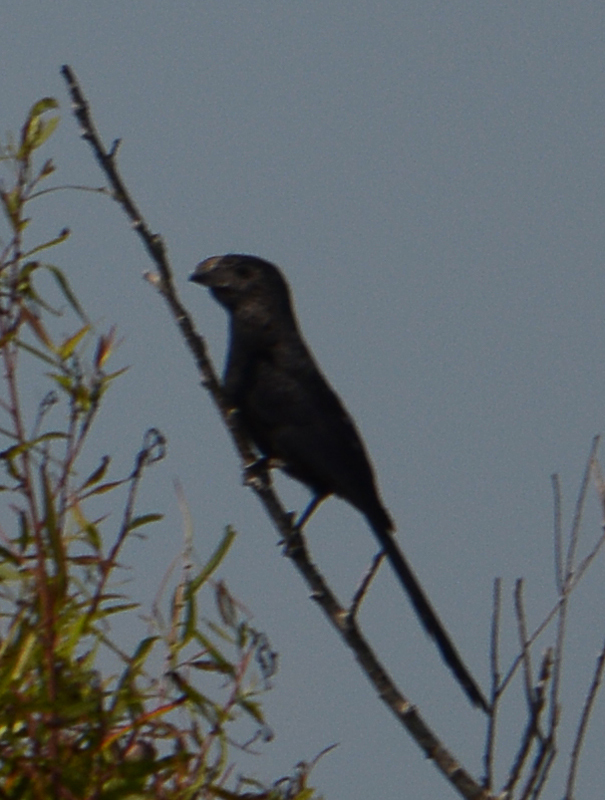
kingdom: Animalia
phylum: Chordata
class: Aves
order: Cuculiformes
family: Cuculidae
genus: Crotophaga
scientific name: Crotophaga sulcirostris
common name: Groove-billed ani
